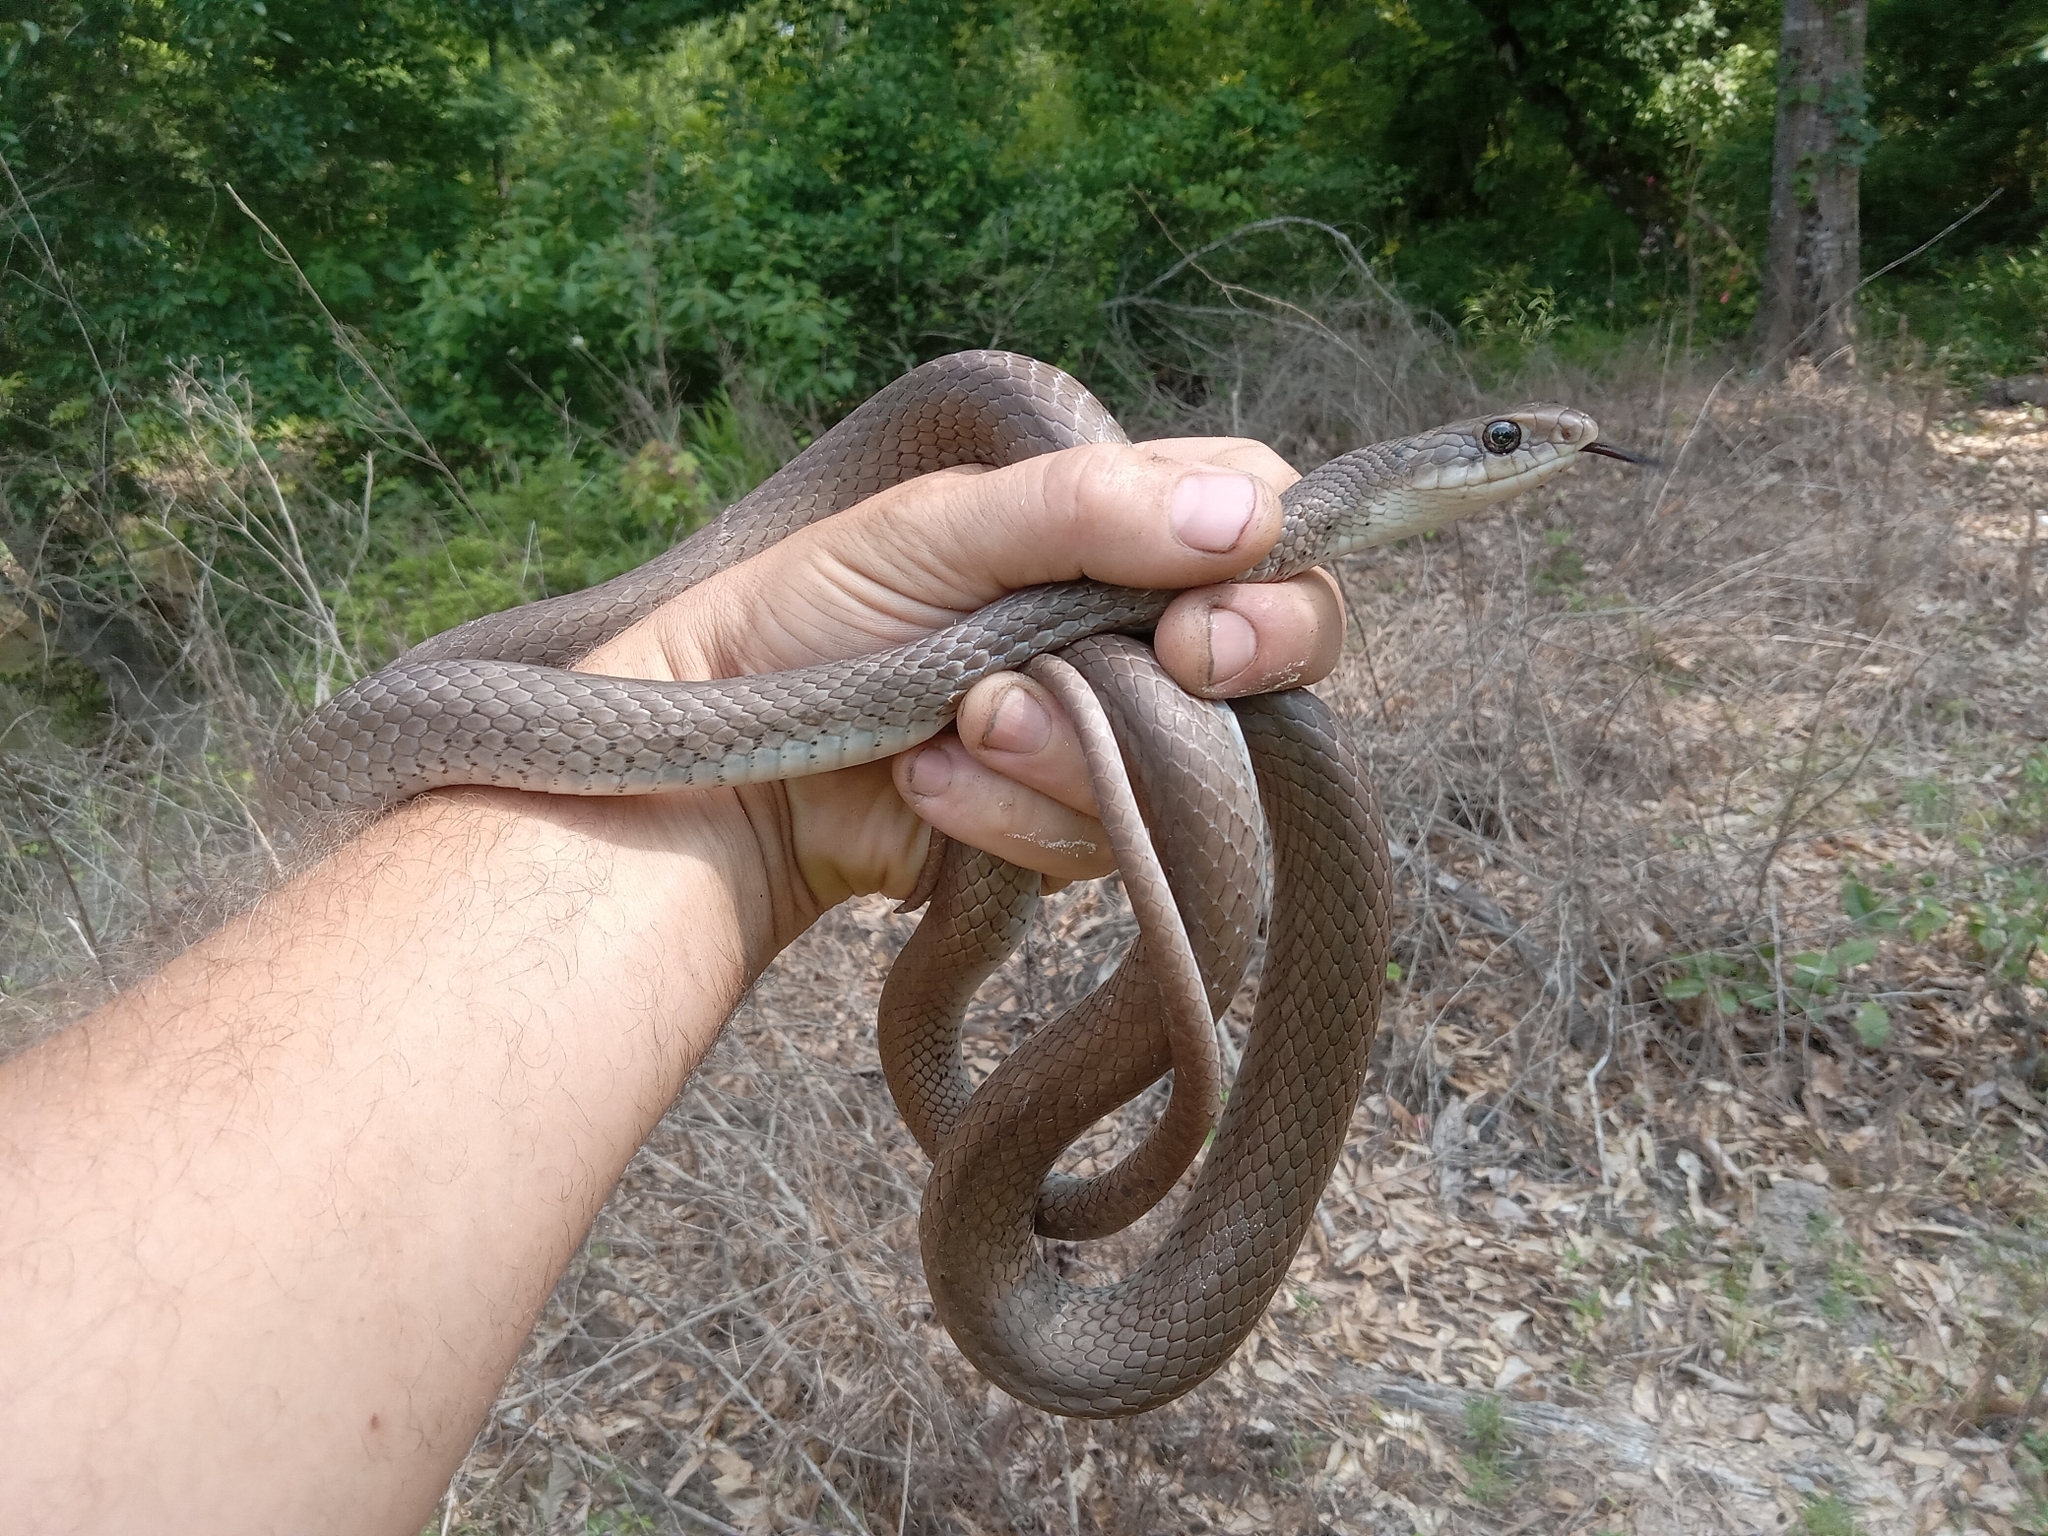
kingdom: Animalia
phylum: Chordata
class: Squamata
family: Colubridae
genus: Coluber
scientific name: Coluber constrictor
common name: Eastern racer
